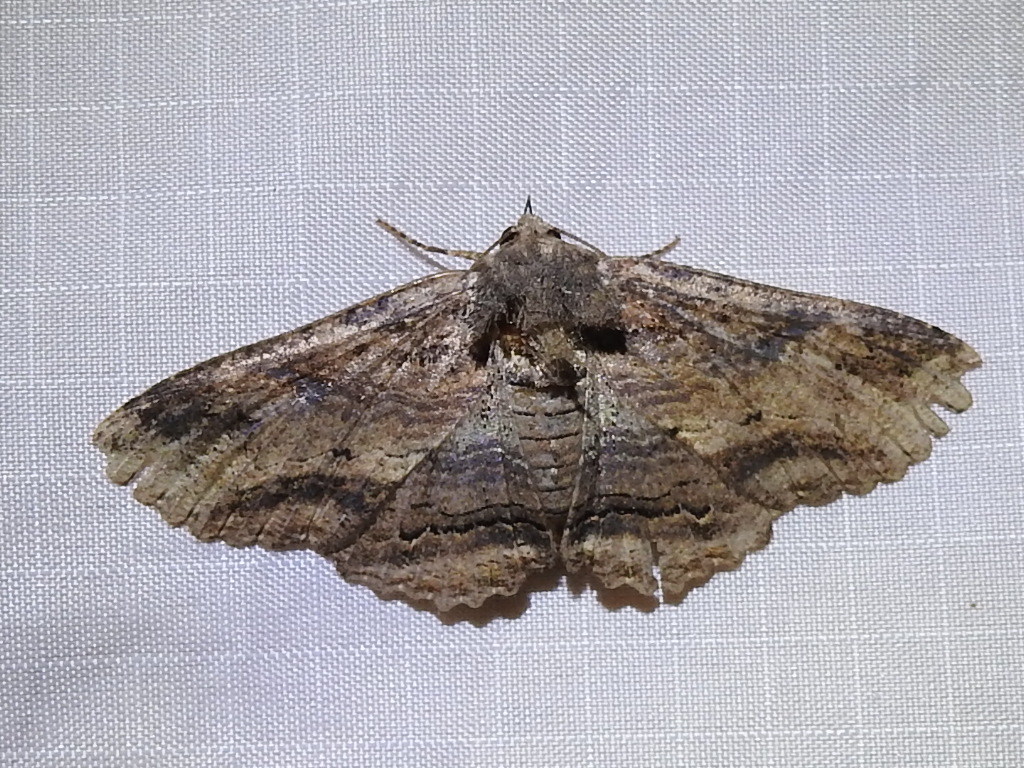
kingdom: Animalia
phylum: Arthropoda
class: Insecta
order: Lepidoptera
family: Erebidae
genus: Zale
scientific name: Zale lunata
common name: Lunate zale moth
